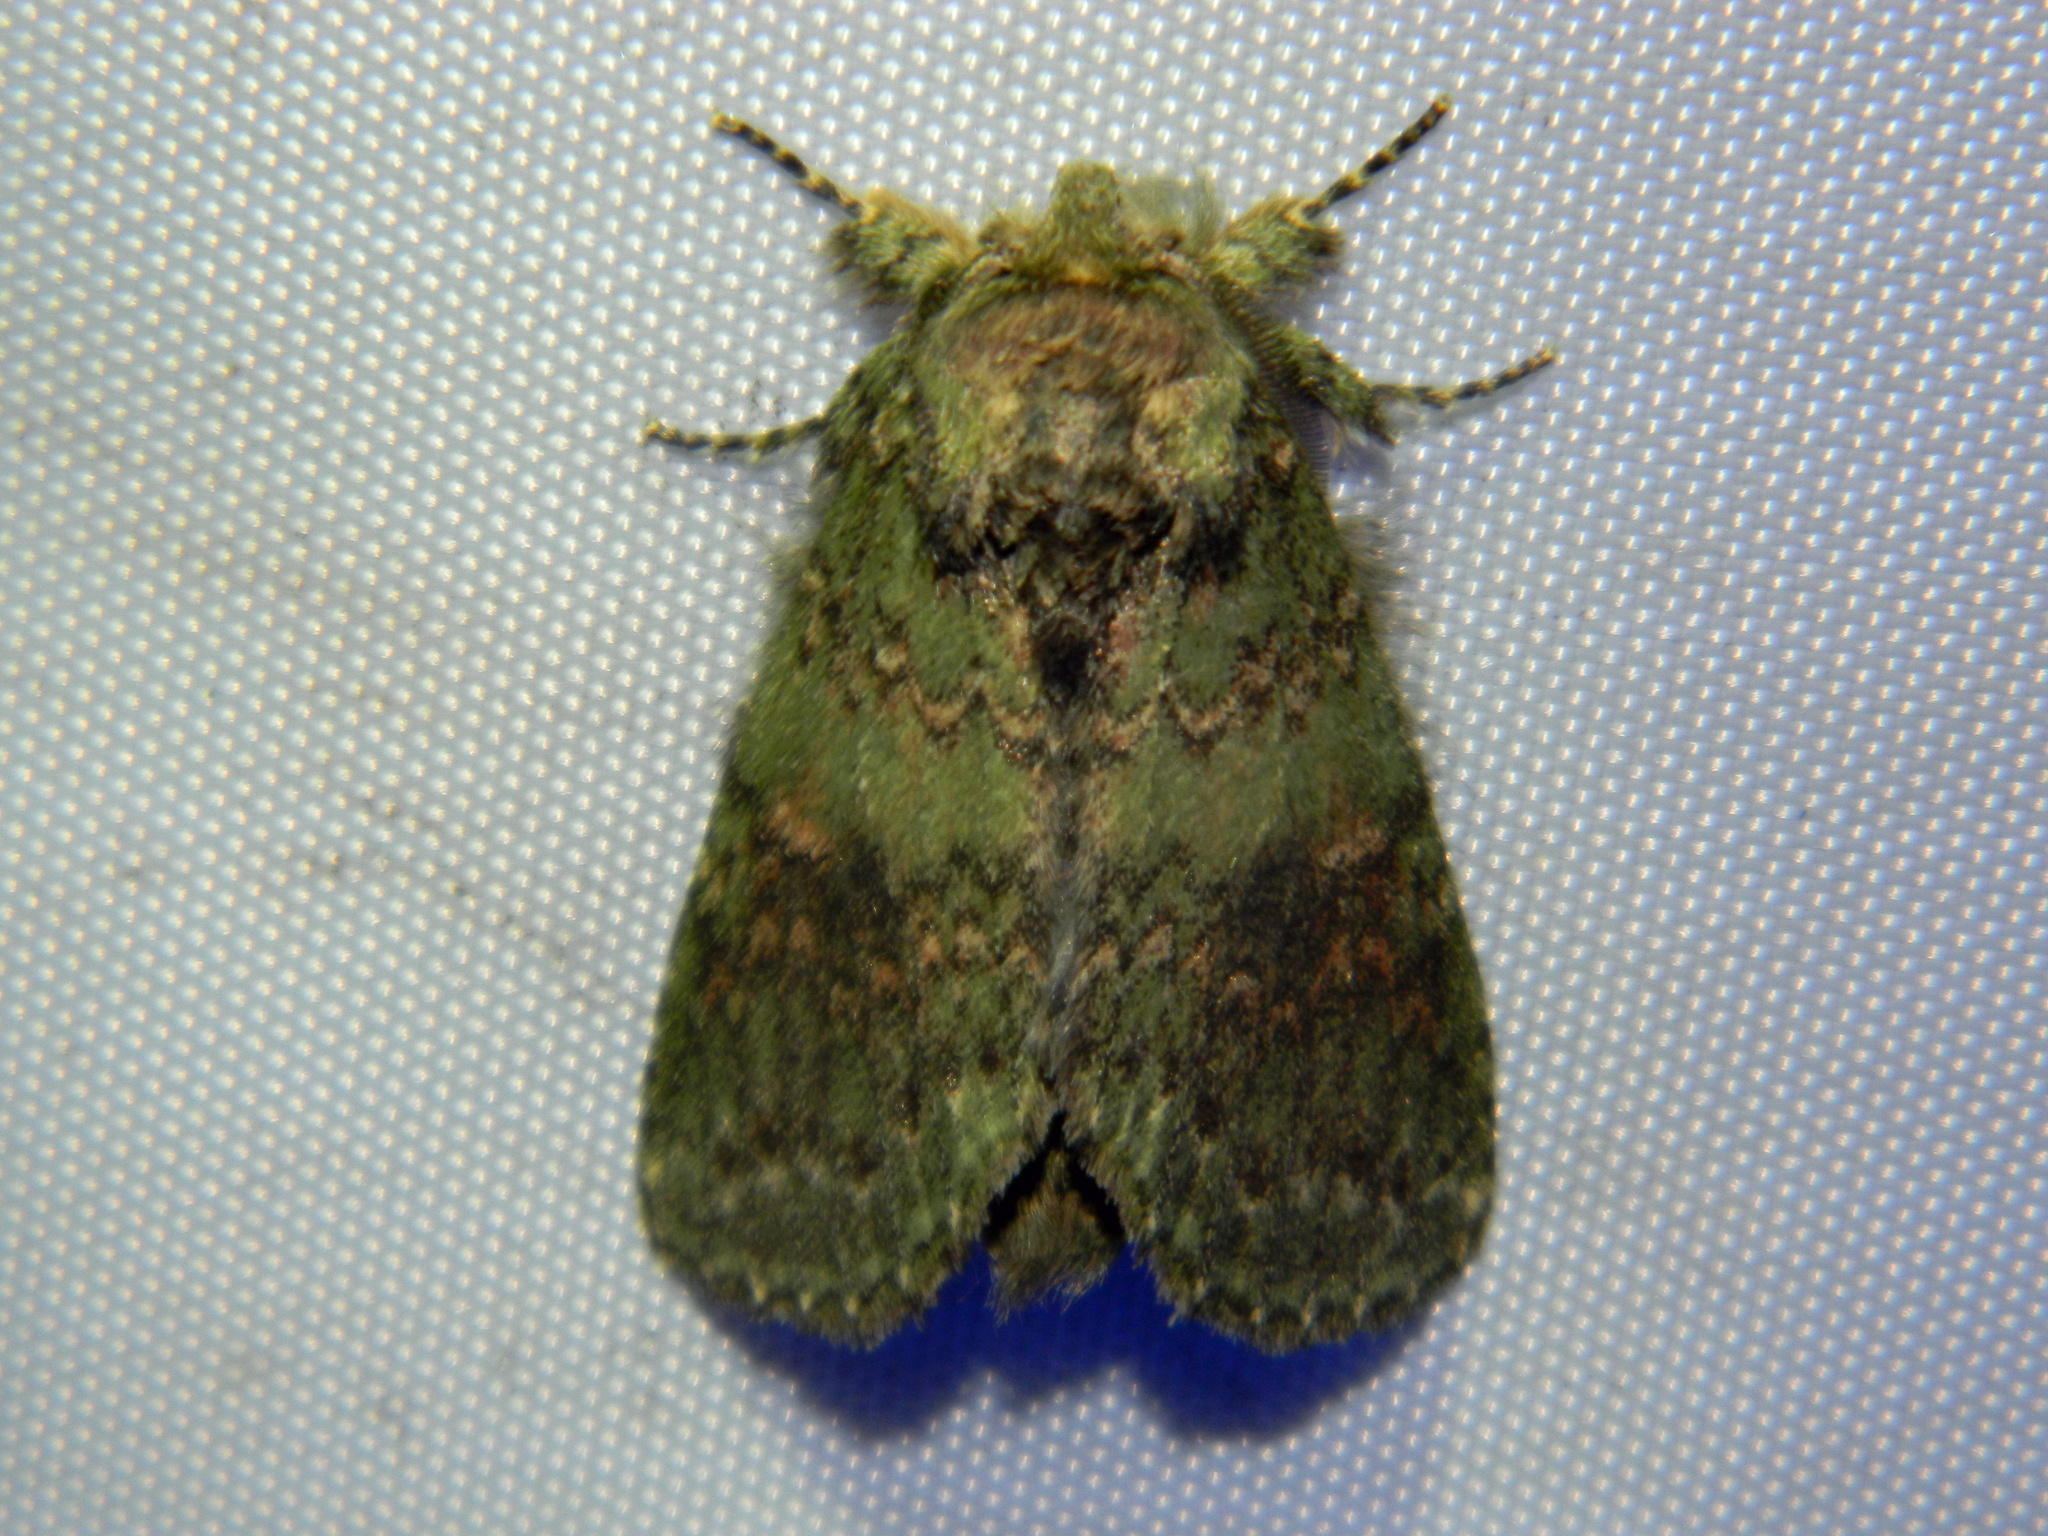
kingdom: Animalia
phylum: Arthropoda
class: Insecta
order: Lepidoptera
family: Notodontidae
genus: Disphragis
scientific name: Disphragis Cecrita biundata
